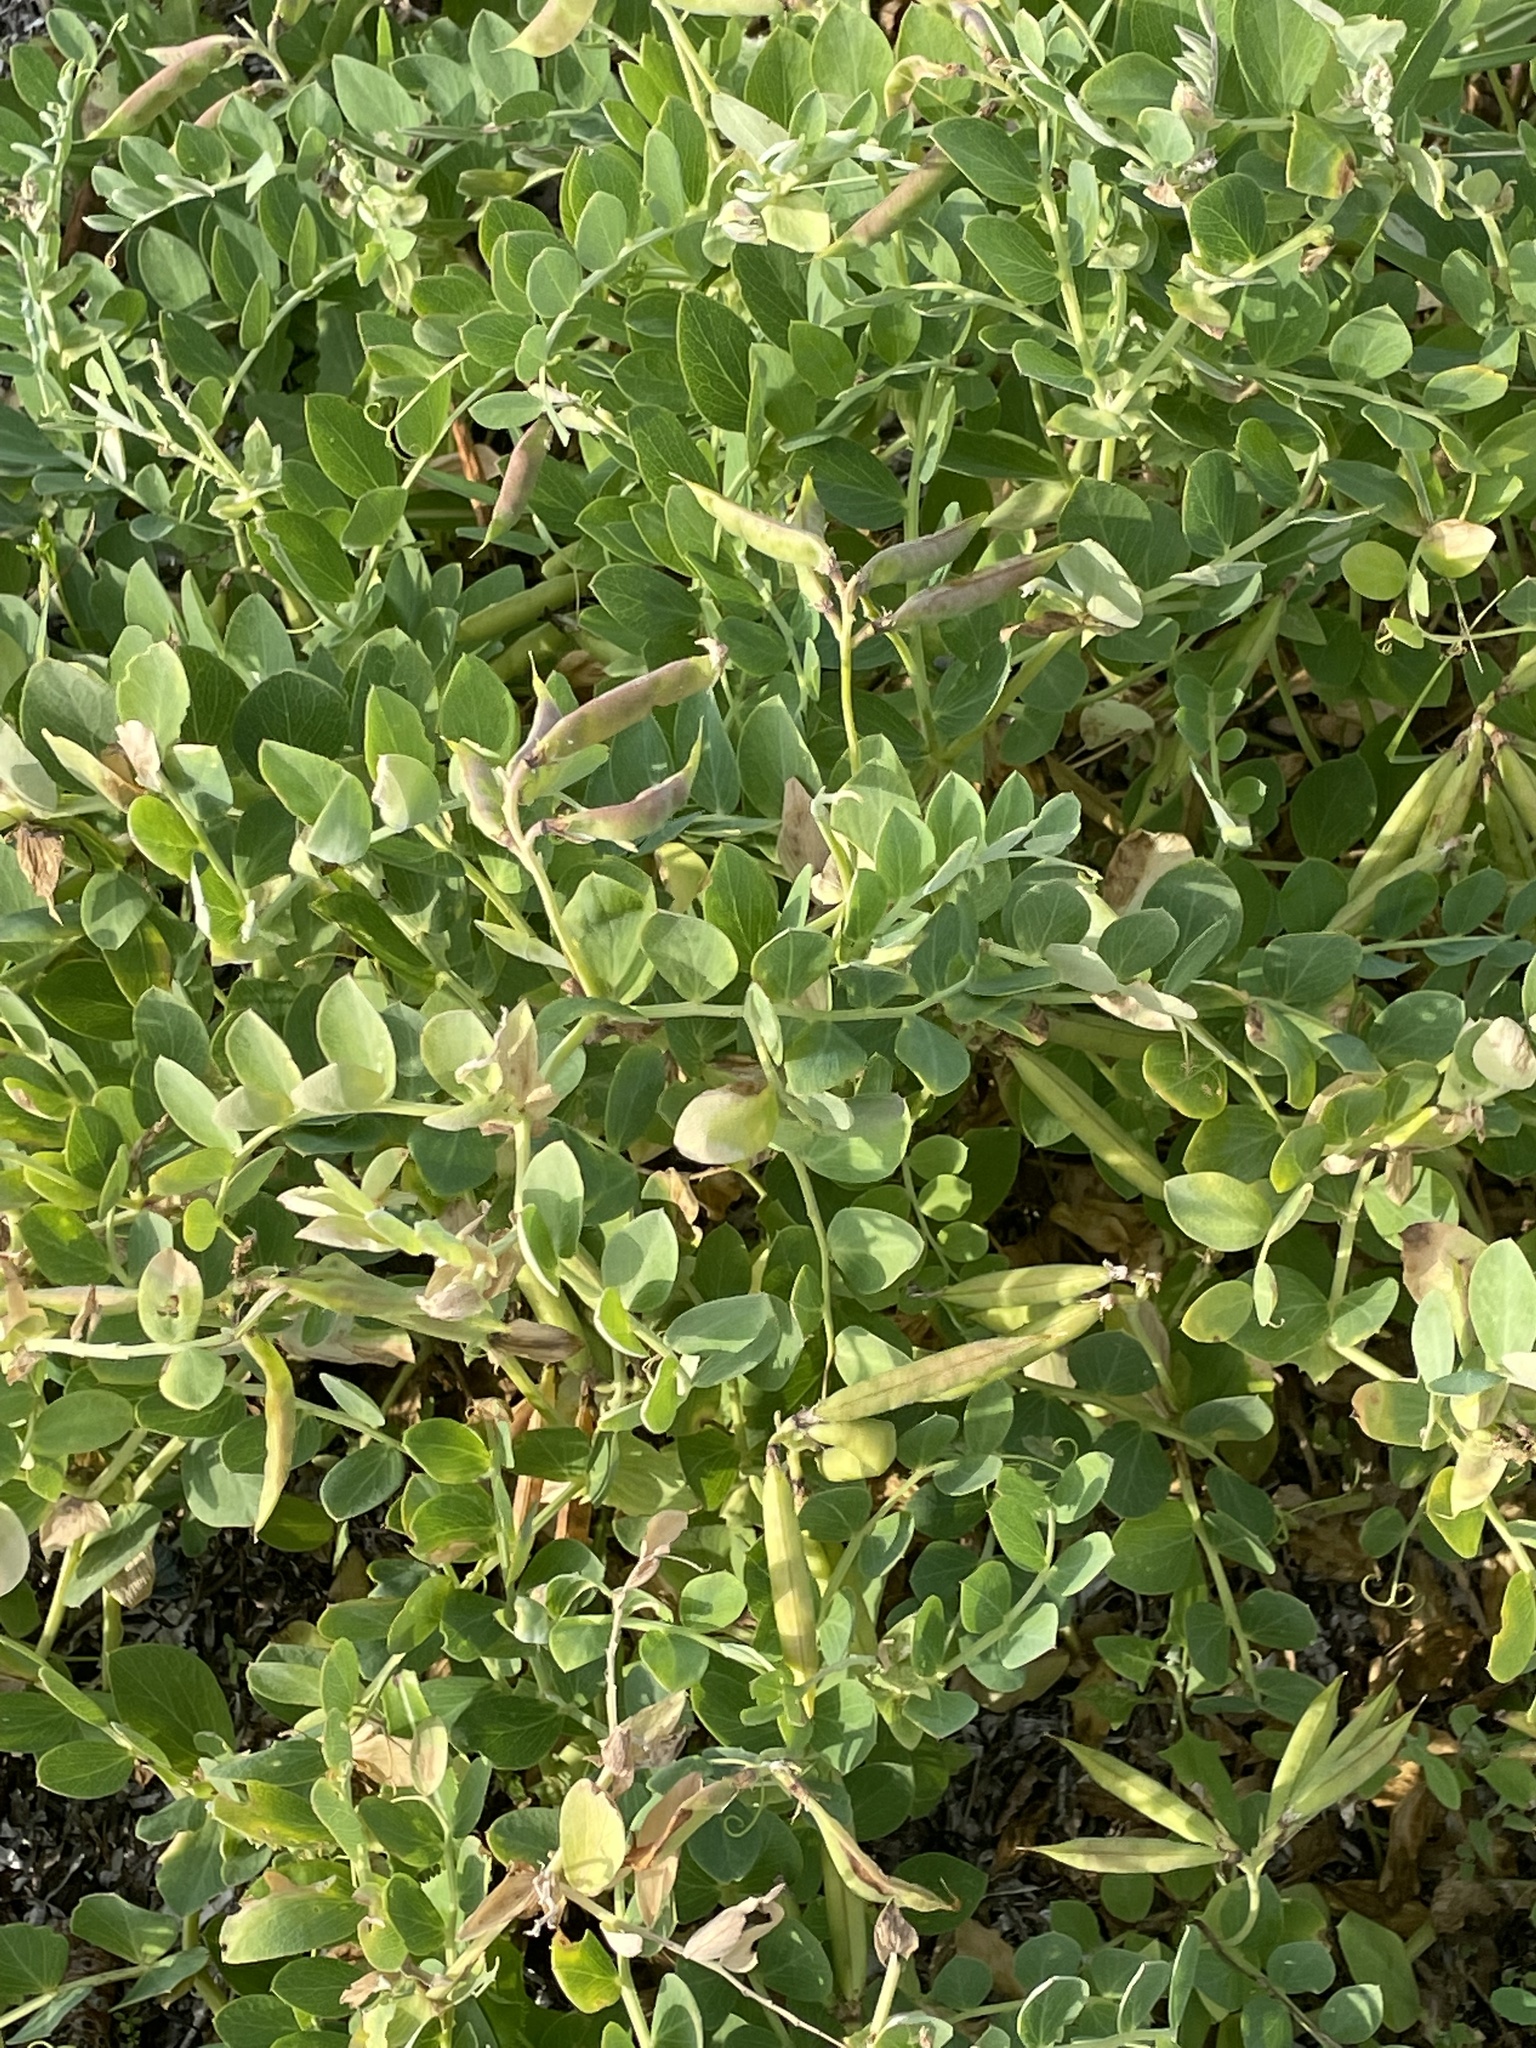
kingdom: Plantae
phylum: Tracheophyta
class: Magnoliopsida
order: Fabales
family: Fabaceae
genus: Lathyrus
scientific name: Lathyrus japonicus
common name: Sea pea
